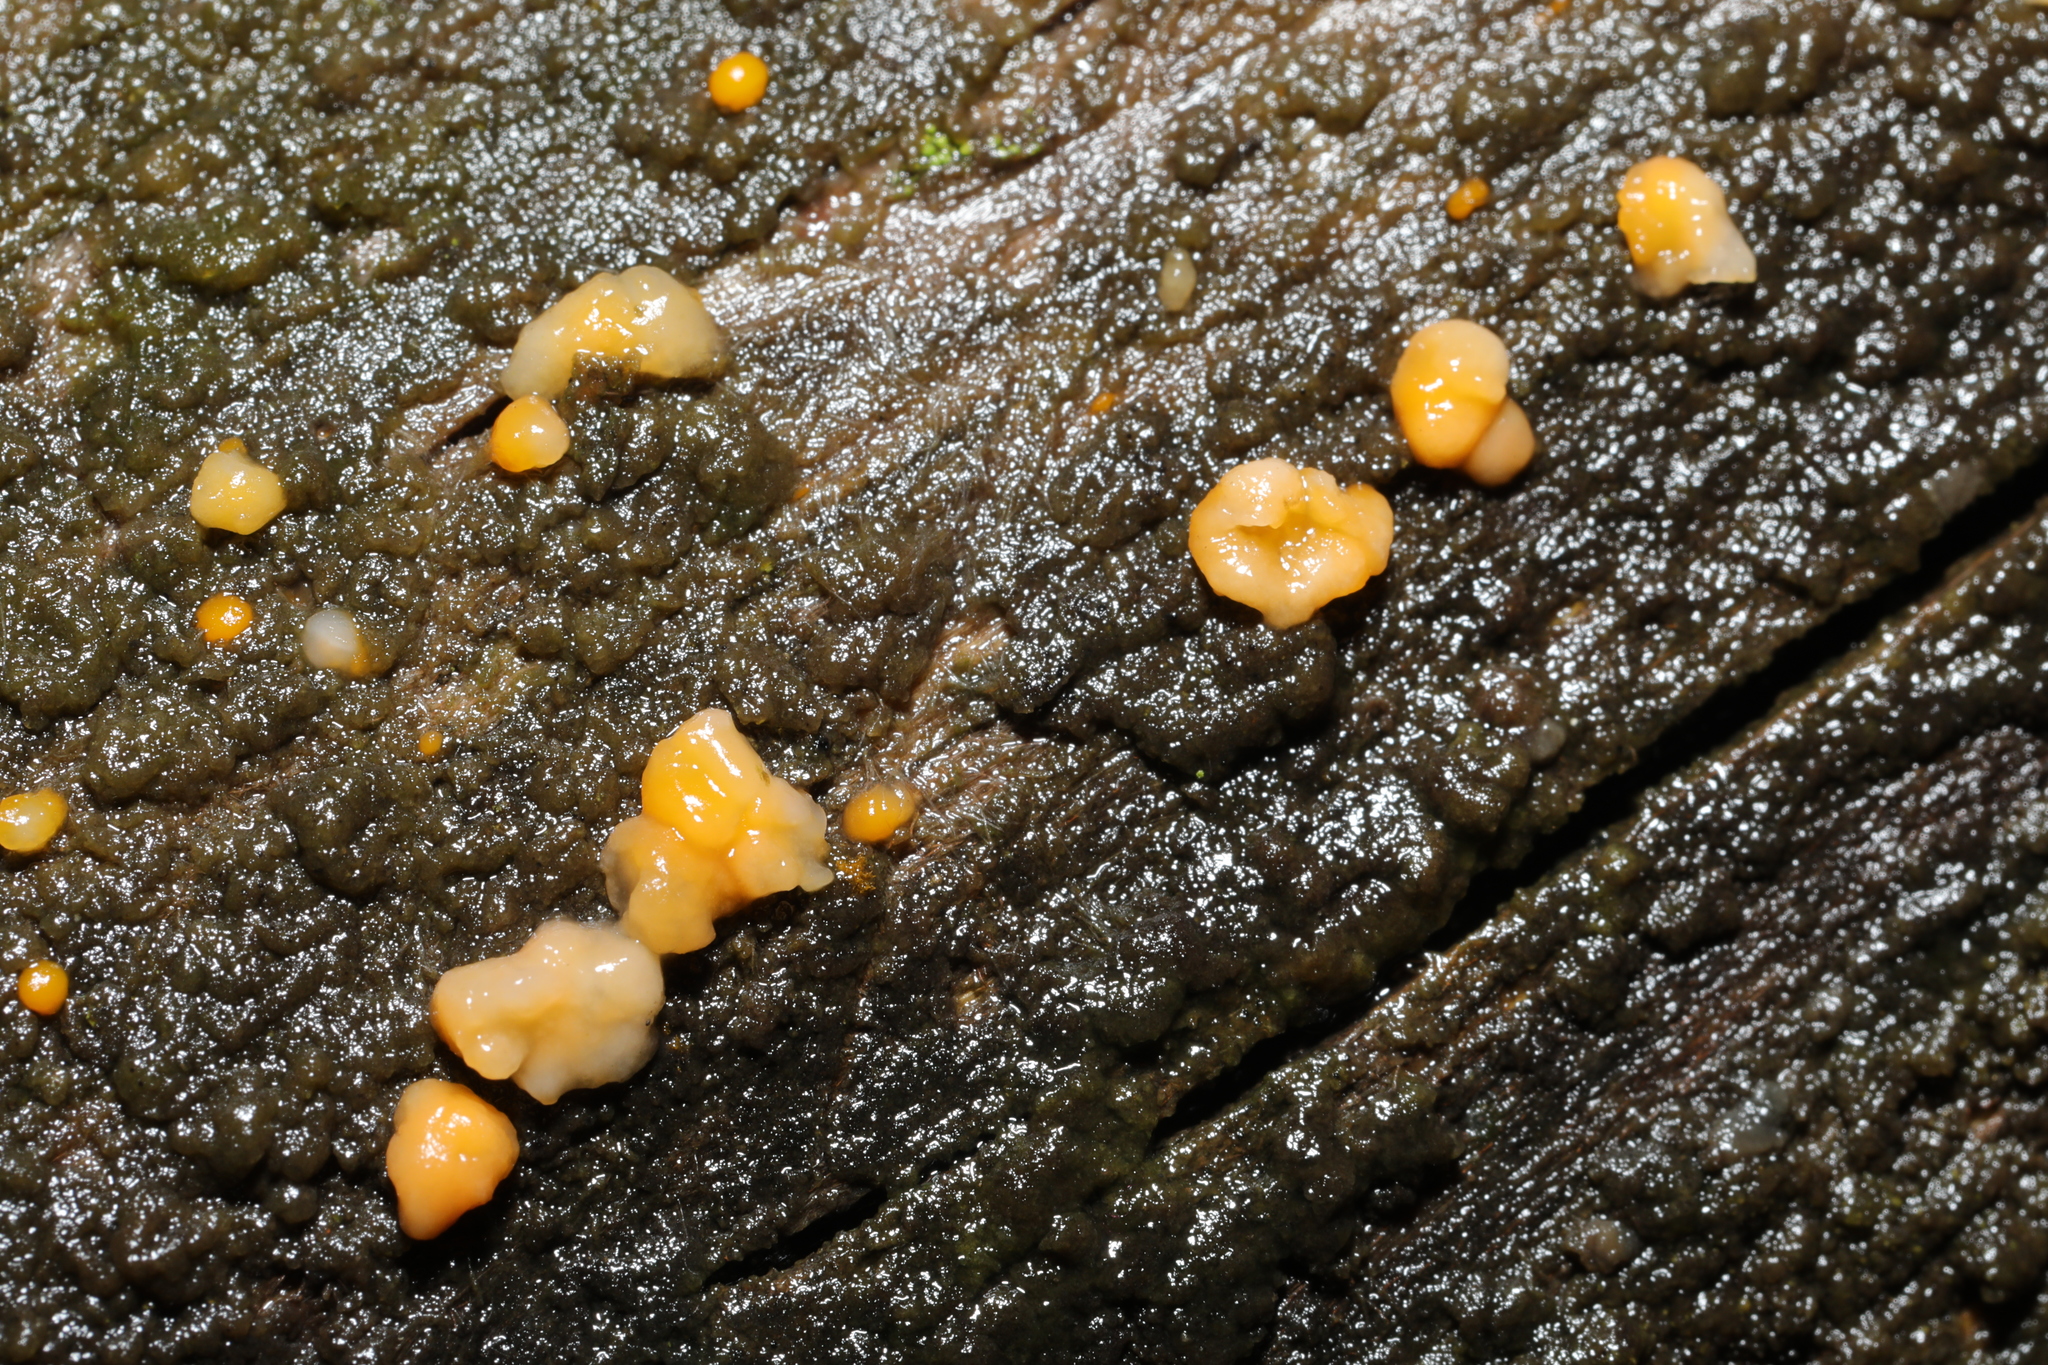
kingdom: Fungi
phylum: Basidiomycota
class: Dacrymycetes
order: Dacrymycetales
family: Dacrymycetaceae
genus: Dacrymyces
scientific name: Dacrymyces stillatus
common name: Common jelly spot
